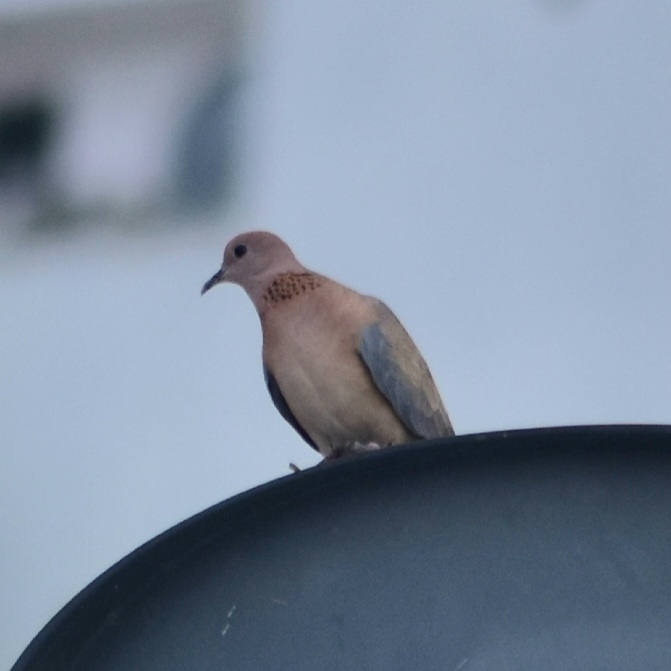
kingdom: Animalia
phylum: Chordata
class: Aves
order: Columbiformes
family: Columbidae
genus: Spilopelia
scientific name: Spilopelia senegalensis
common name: Laughing dove
